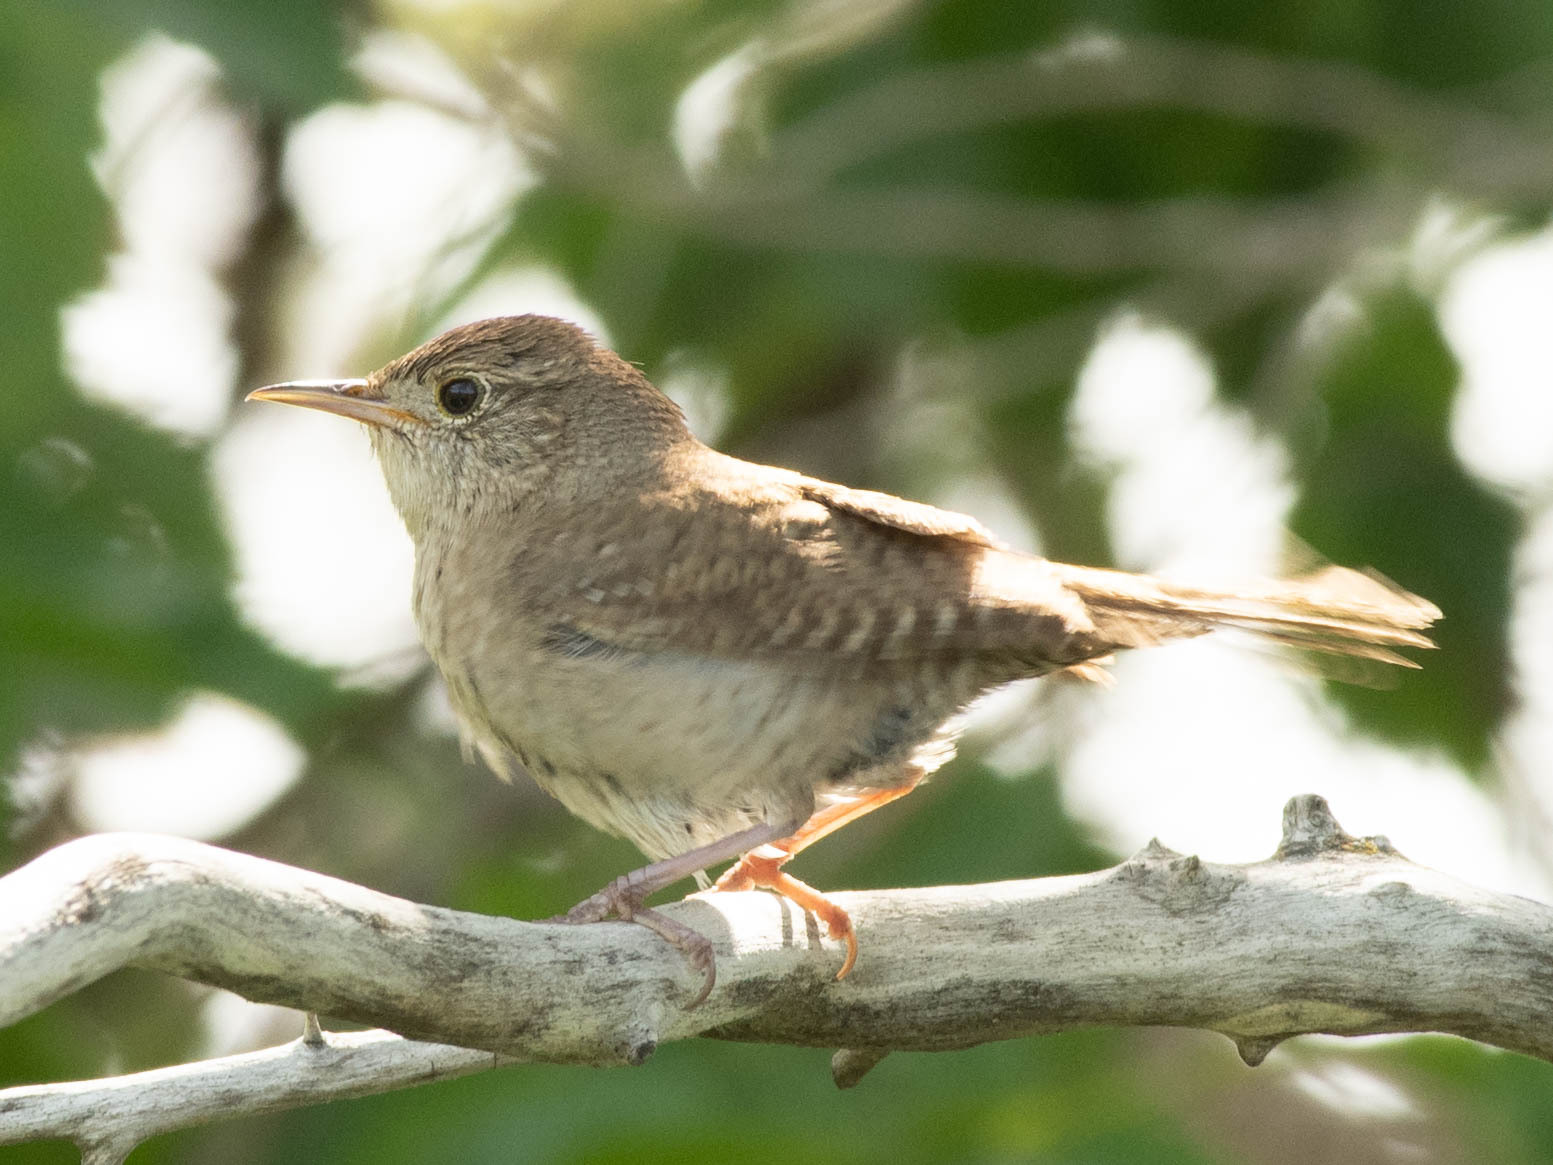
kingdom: Animalia
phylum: Chordata
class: Aves
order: Passeriformes
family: Troglodytidae
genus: Troglodytes
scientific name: Troglodytes aedon
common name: House wren
